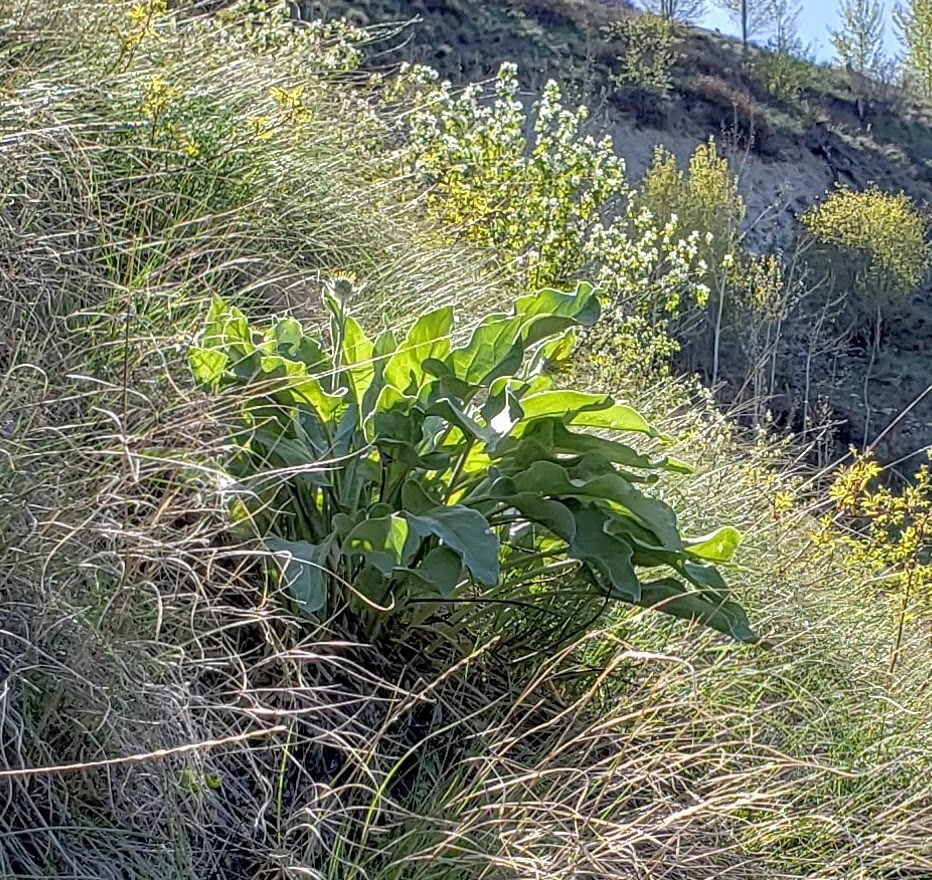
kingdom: Plantae
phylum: Tracheophyta
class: Magnoliopsida
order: Asterales
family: Asteraceae
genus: Wyethia
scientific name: Wyethia sagittata
